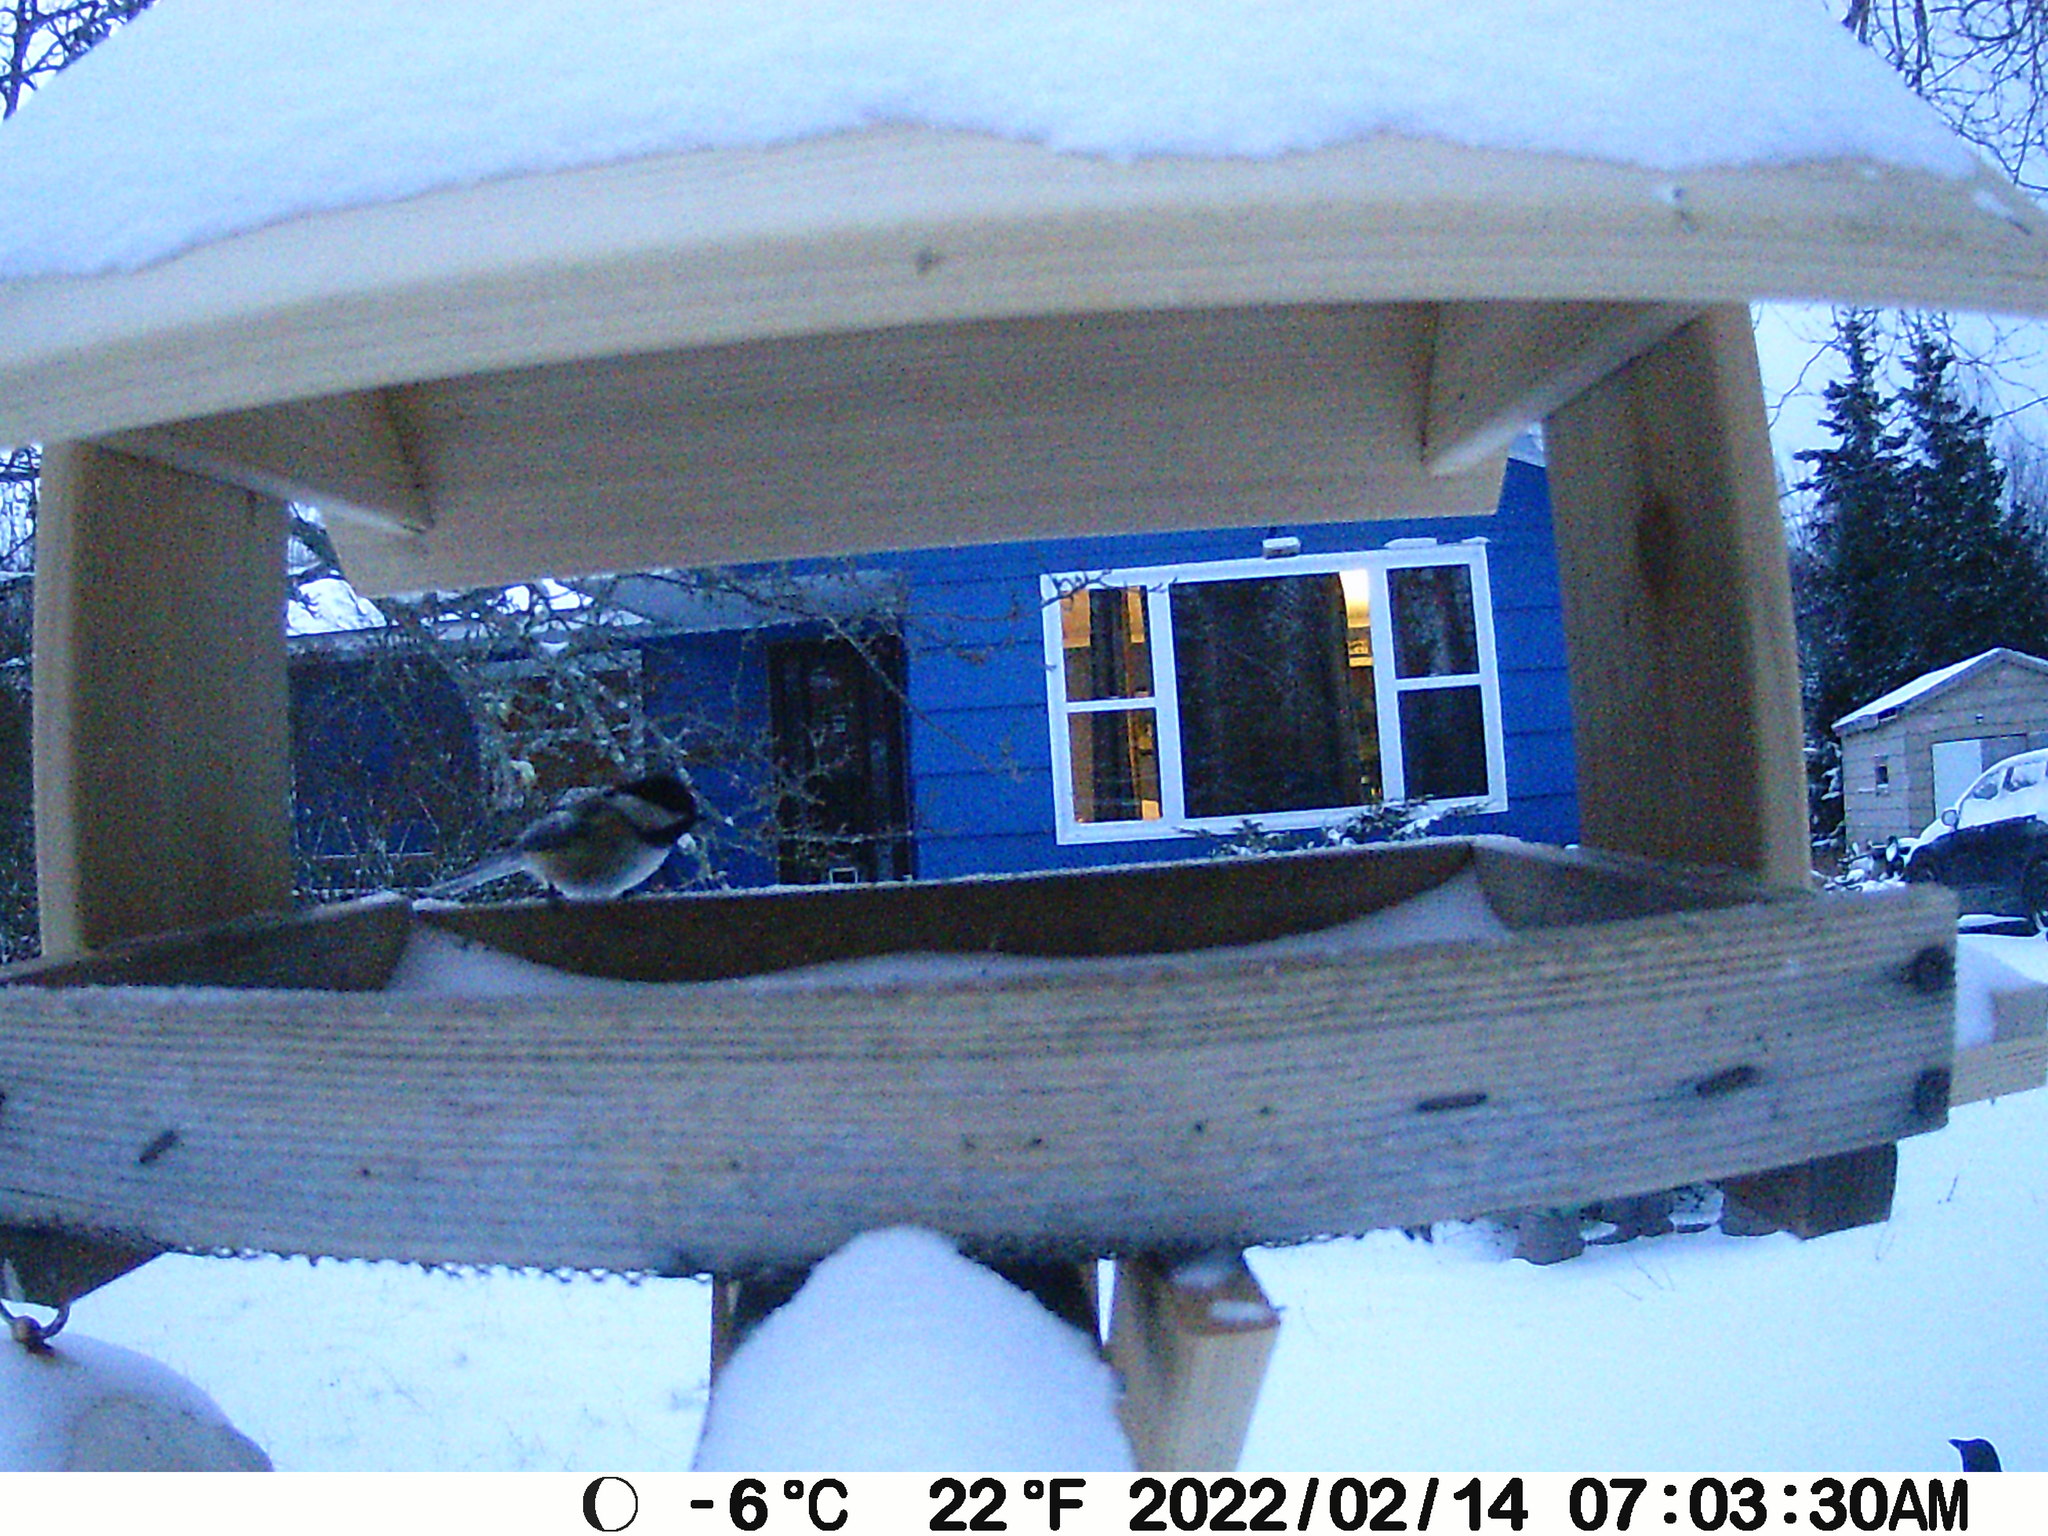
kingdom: Animalia
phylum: Chordata
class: Aves
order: Passeriformes
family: Paridae
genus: Poecile
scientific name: Poecile atricapillus
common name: Black-capped chickadee
